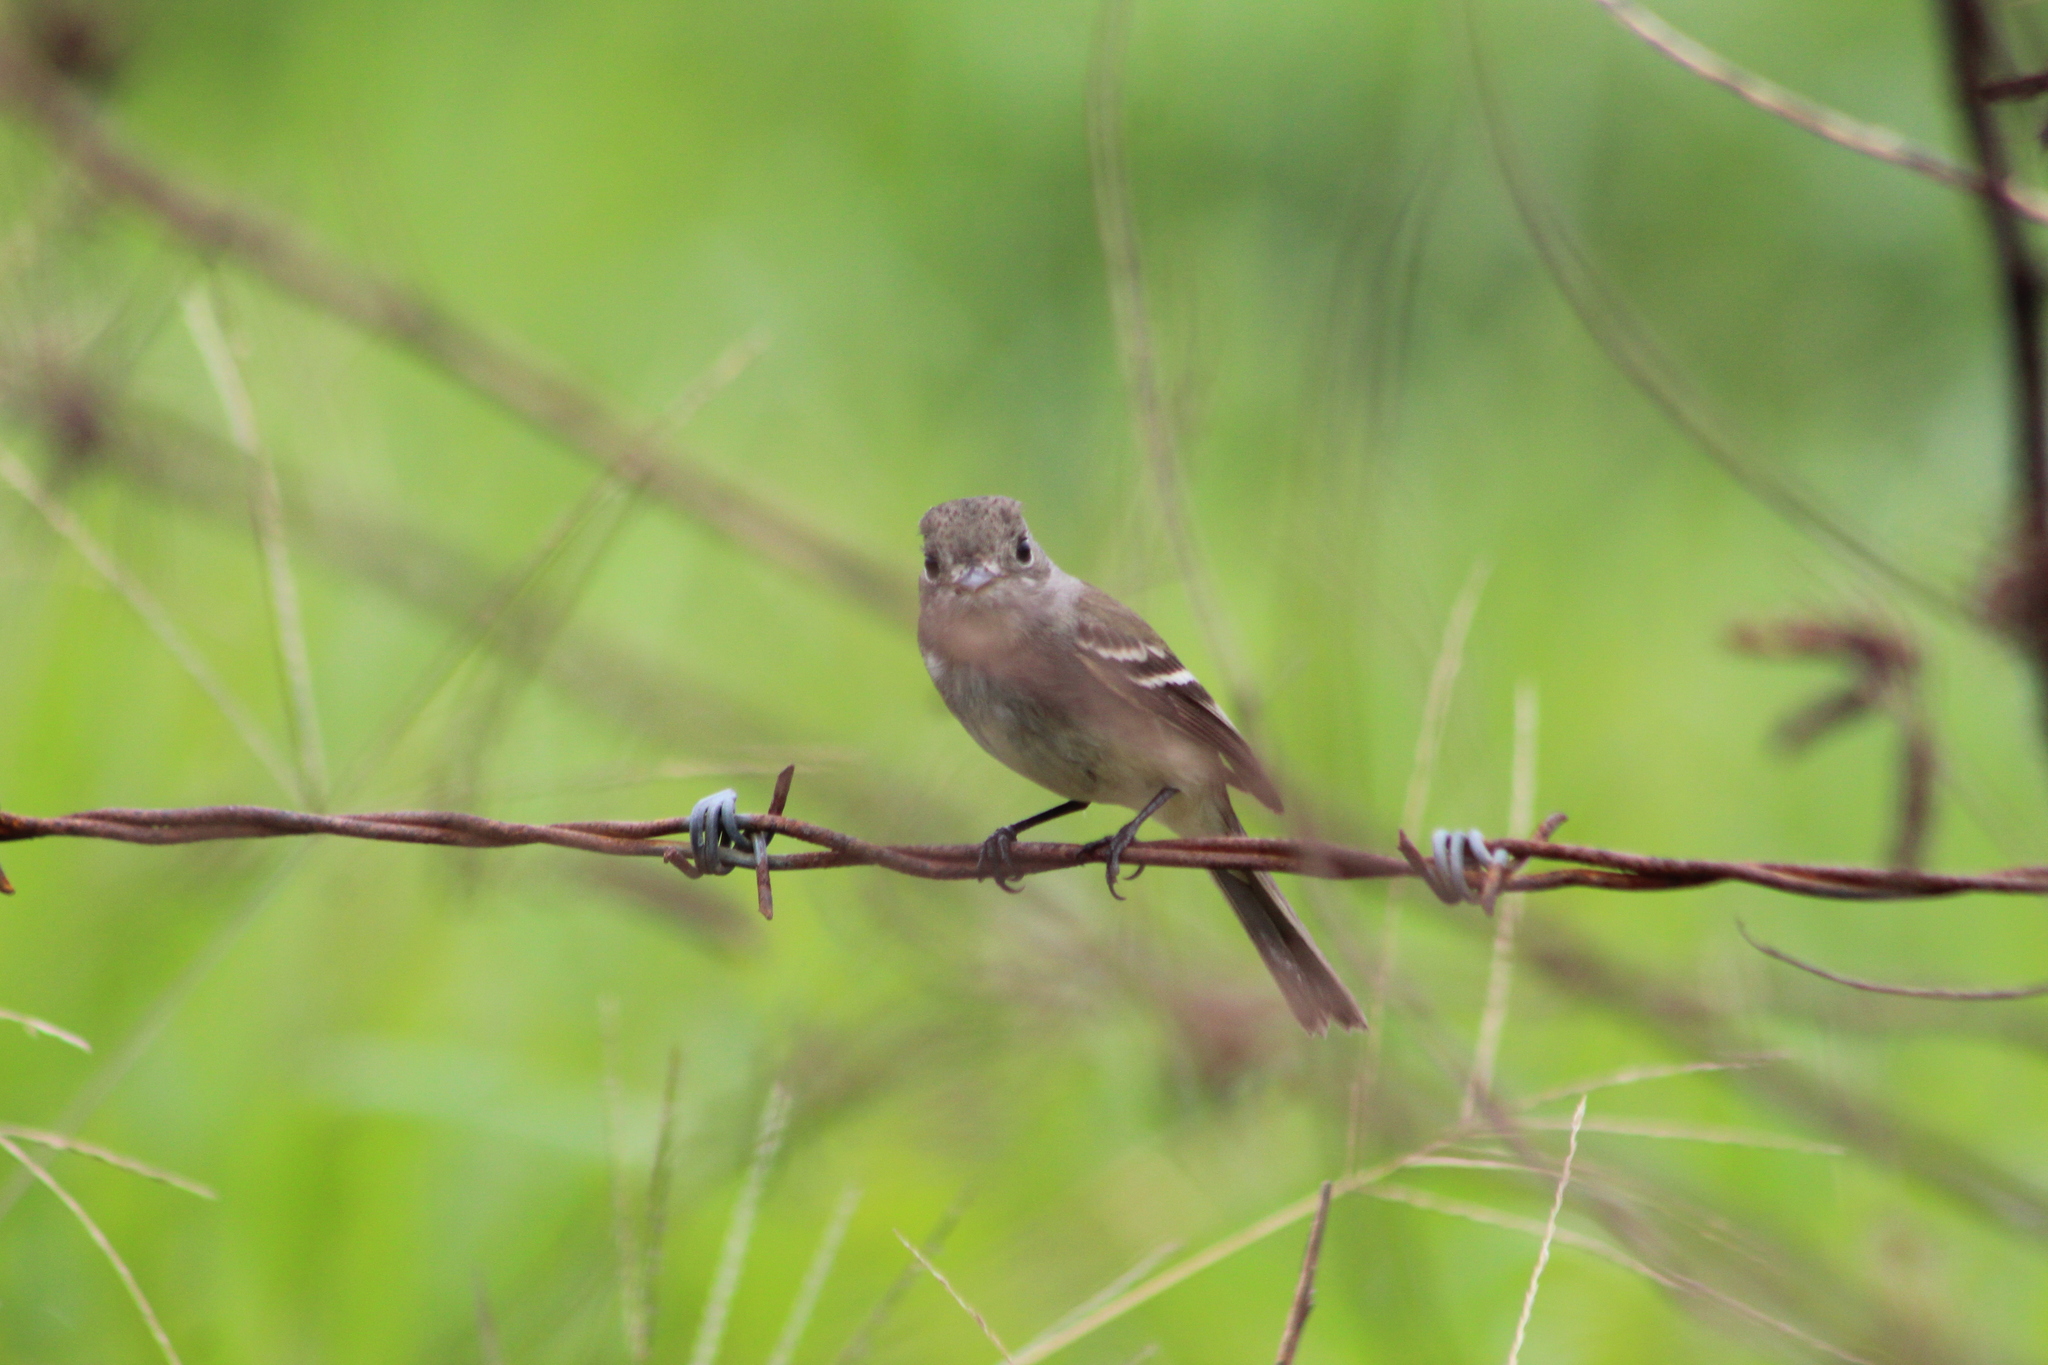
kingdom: Animalia
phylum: Chordata
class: Aves
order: Passeriformes
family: Tyrannidae
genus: Empidonax
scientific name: Empidonax minimus
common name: Least flycatcher
